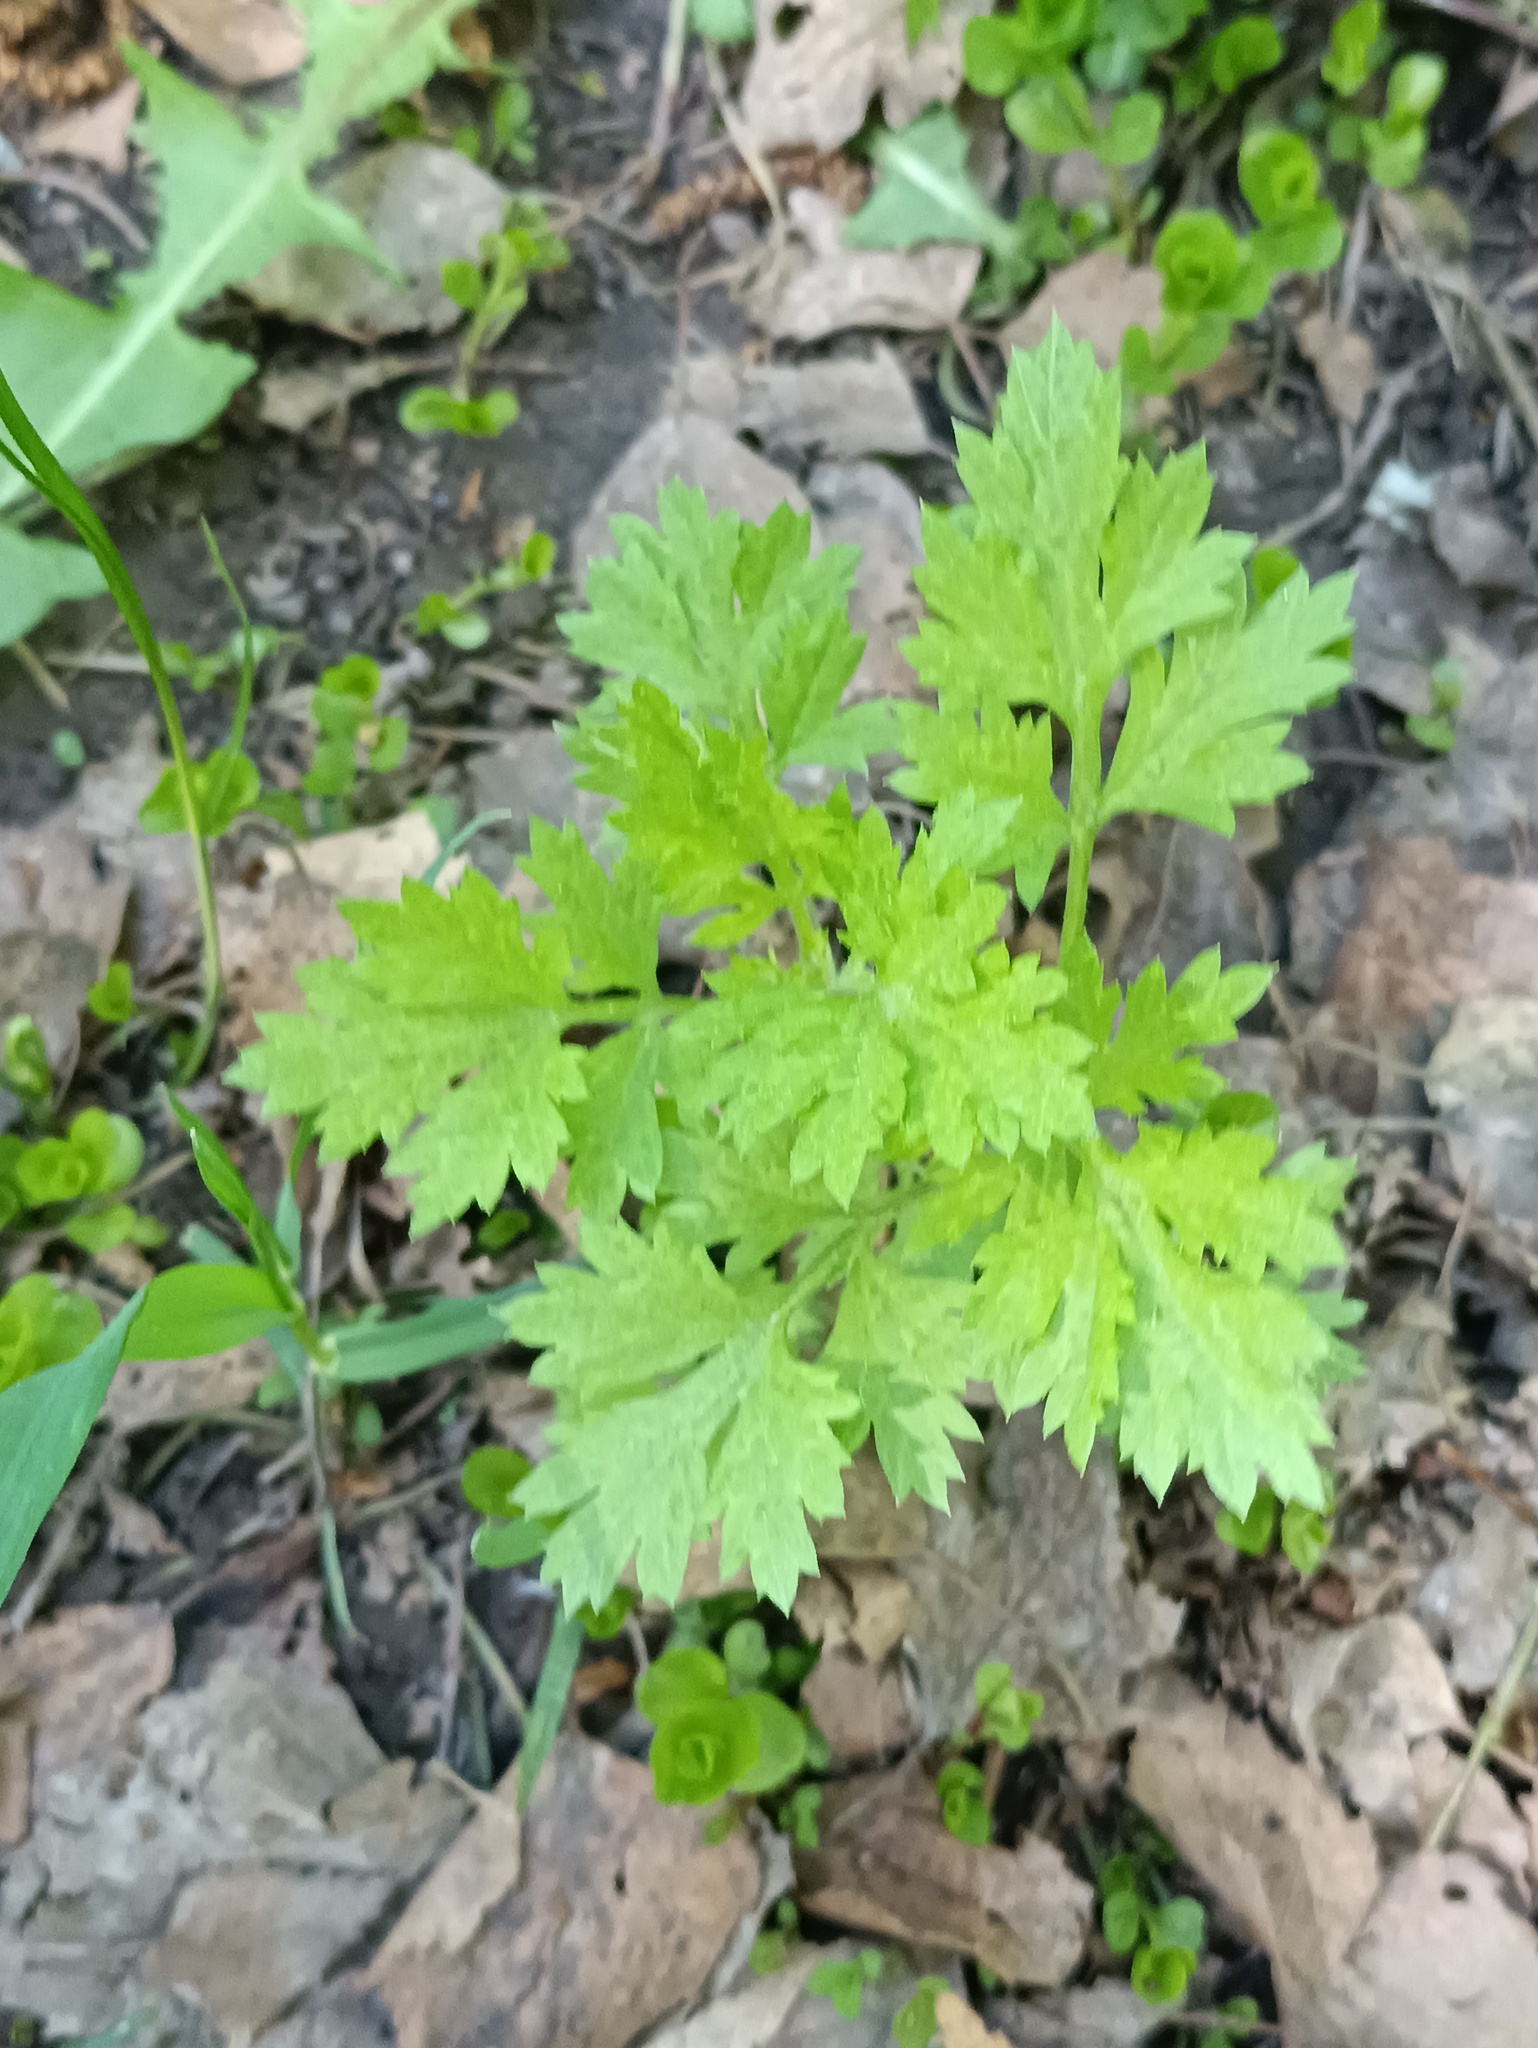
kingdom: Plantae
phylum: Tracheophyta
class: Magnoliopsida
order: Asterales
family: Asteraceae
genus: Artemisia
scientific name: Artemisia vulgaris
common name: Mugwort
